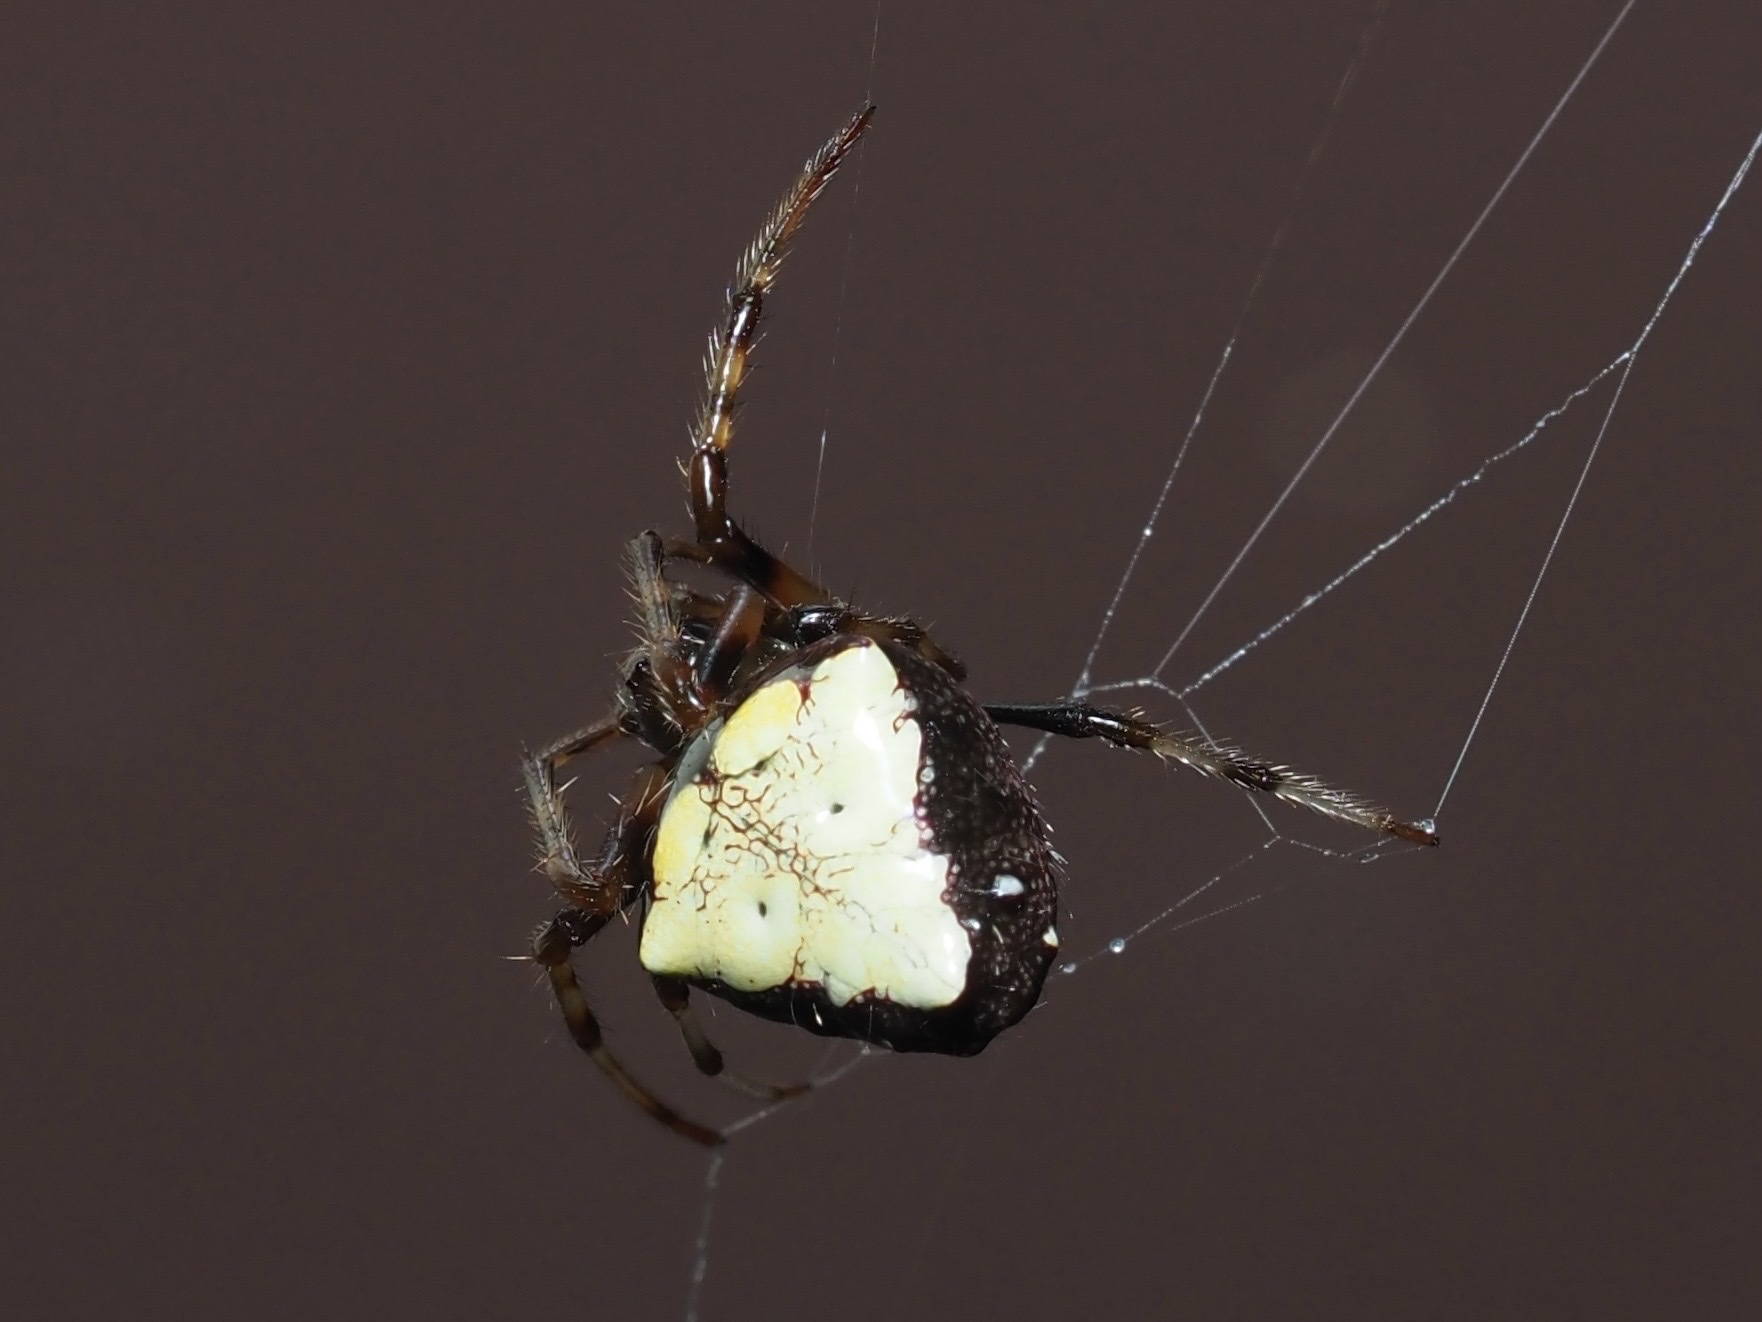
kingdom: Animalia
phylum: Arthropoda
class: Arachnida
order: Araneae
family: Araneidae
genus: Verrucosa
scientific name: Verrucosa arenata
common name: Orb weavers
